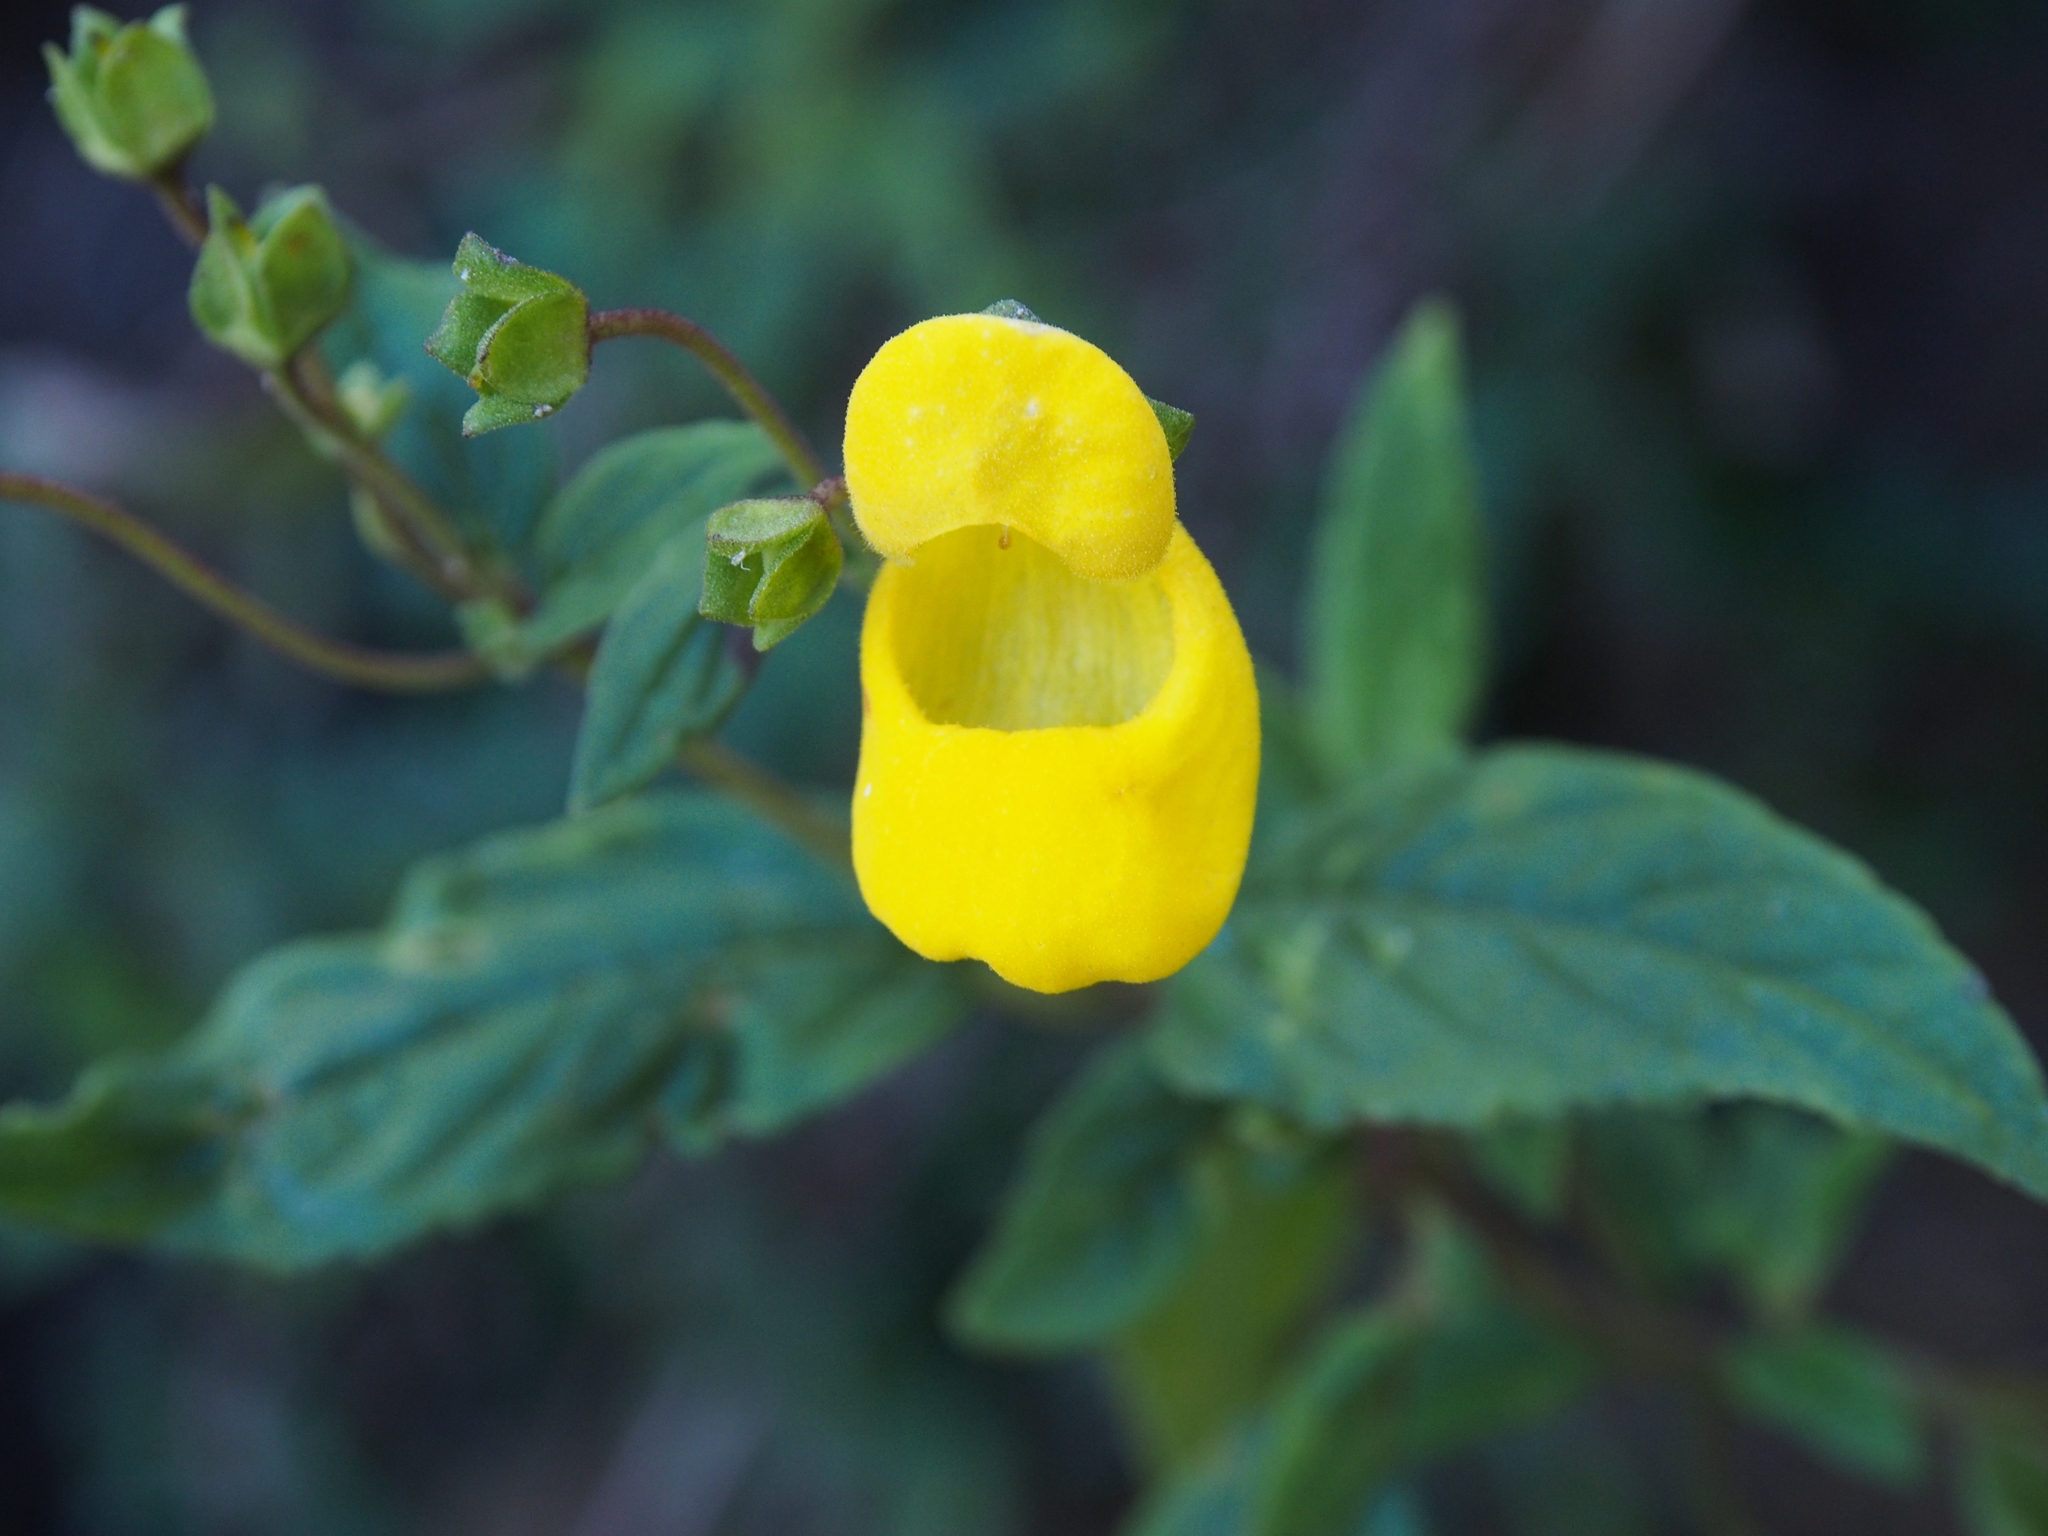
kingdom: Plantae
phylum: Tracheophyta
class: Magnoliopsida
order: Lamiales
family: Calceolariaceae
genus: Calceolaria
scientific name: Calceolaria irazuensis
